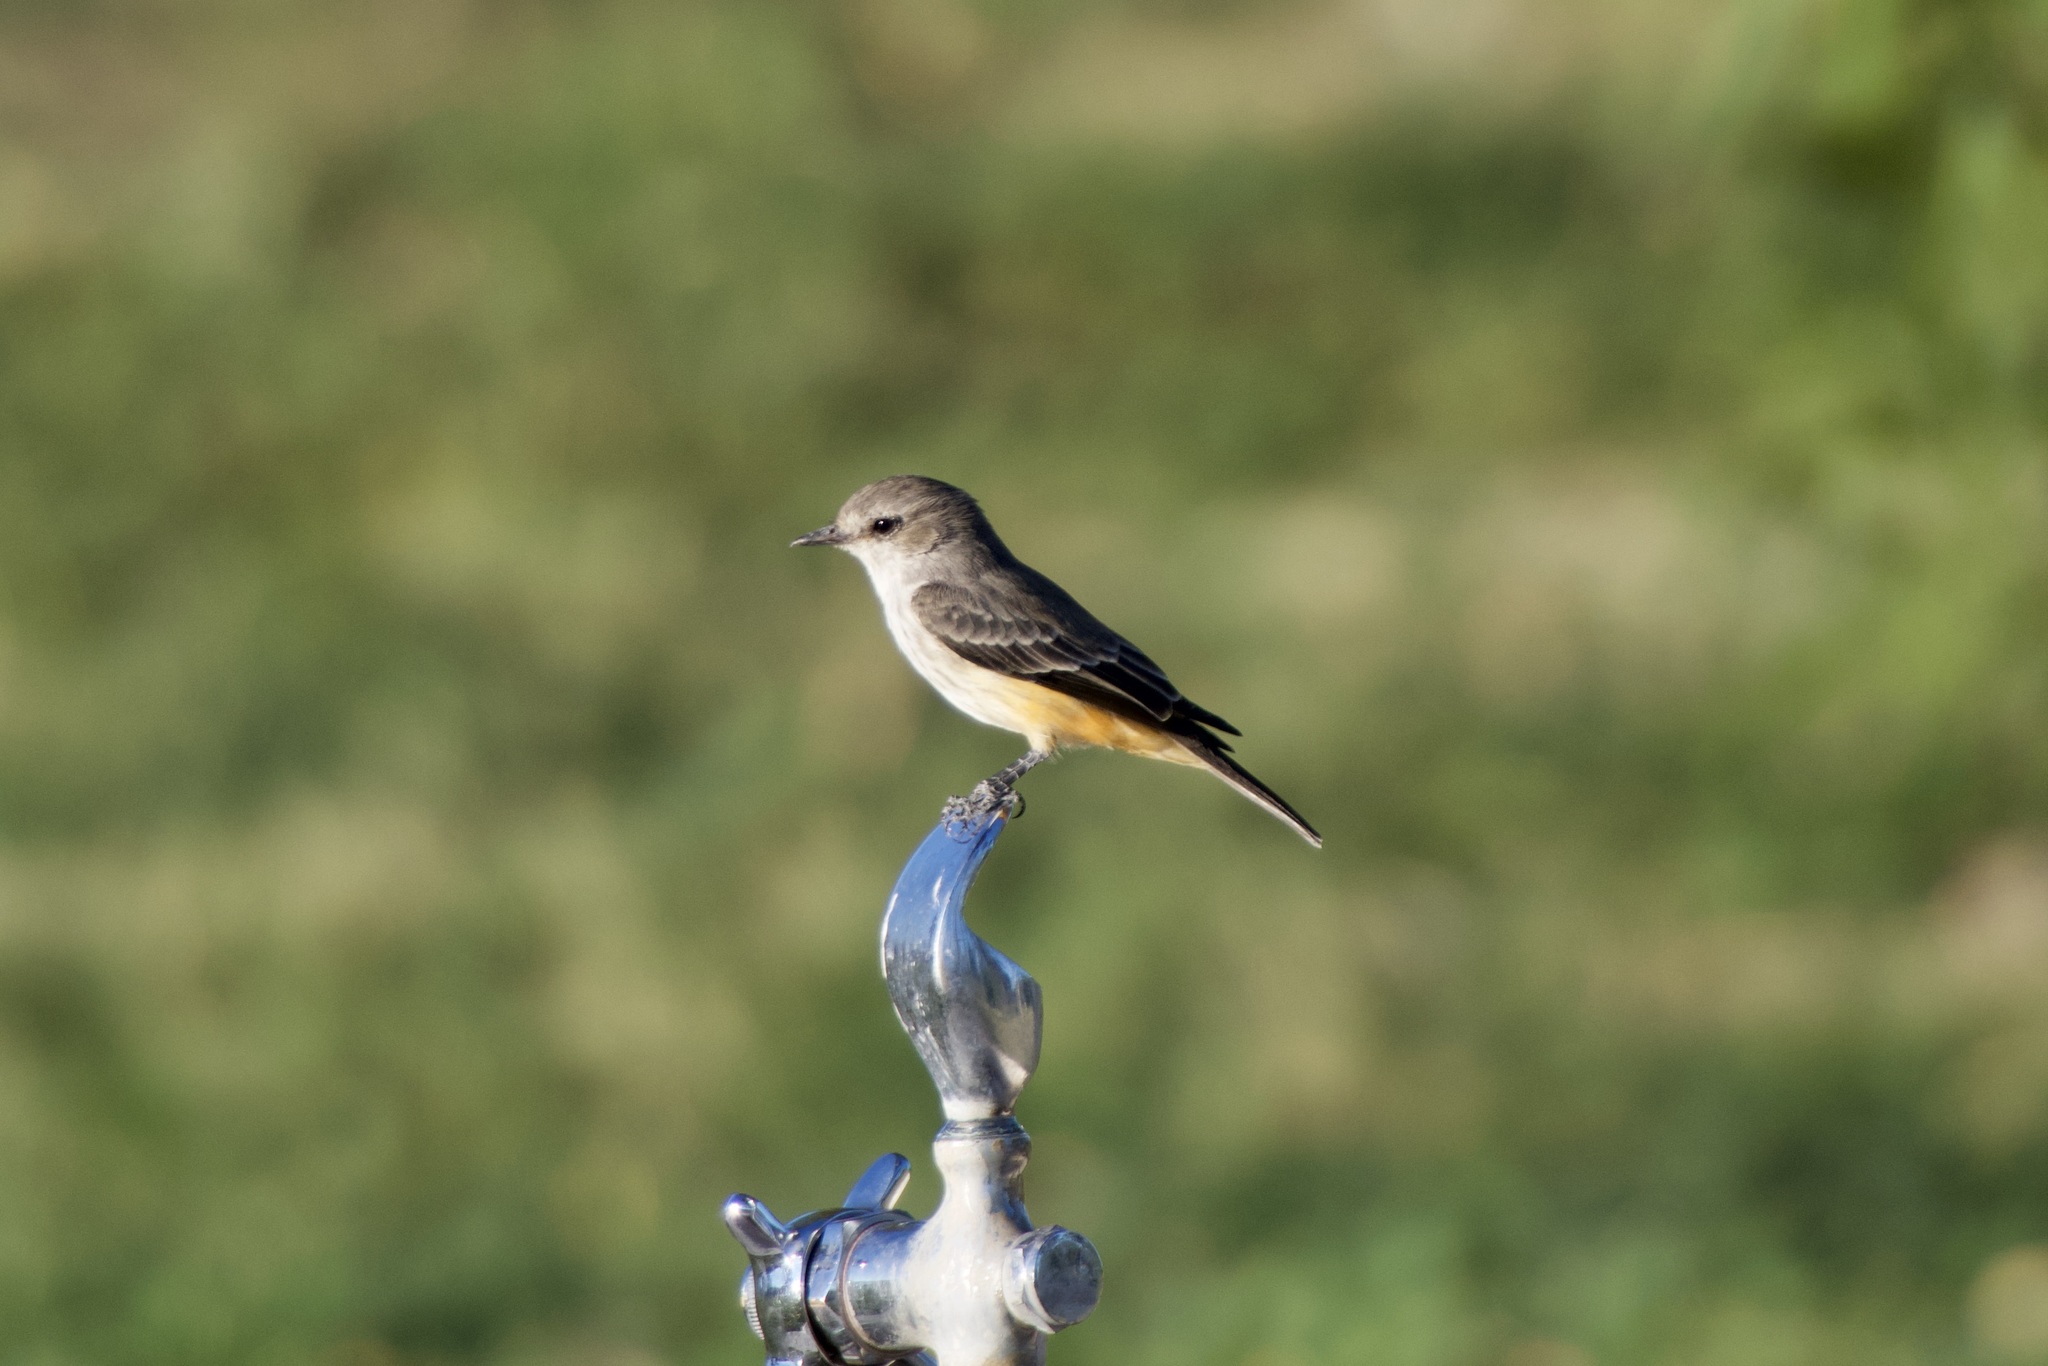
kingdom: Animalia
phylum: Chordata
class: Aves
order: Passeriformes
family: Tyrannidae
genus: Pyrocephalus
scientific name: Pyrocephalus rubinus
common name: Vermilion flycatcher
